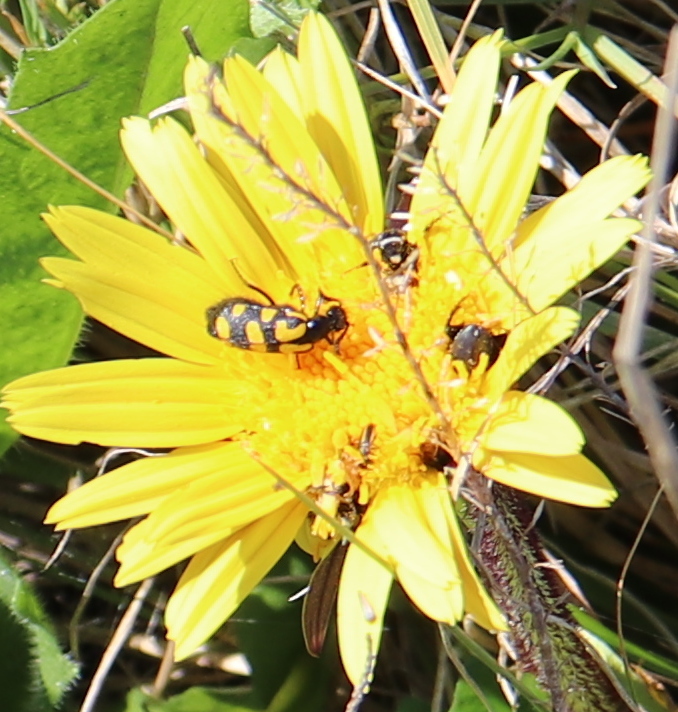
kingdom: Animalia
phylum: Arthropoda
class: Insecta
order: Coleoptera
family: Meloidae
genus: Ceroctis
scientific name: Ceroctis capensis
